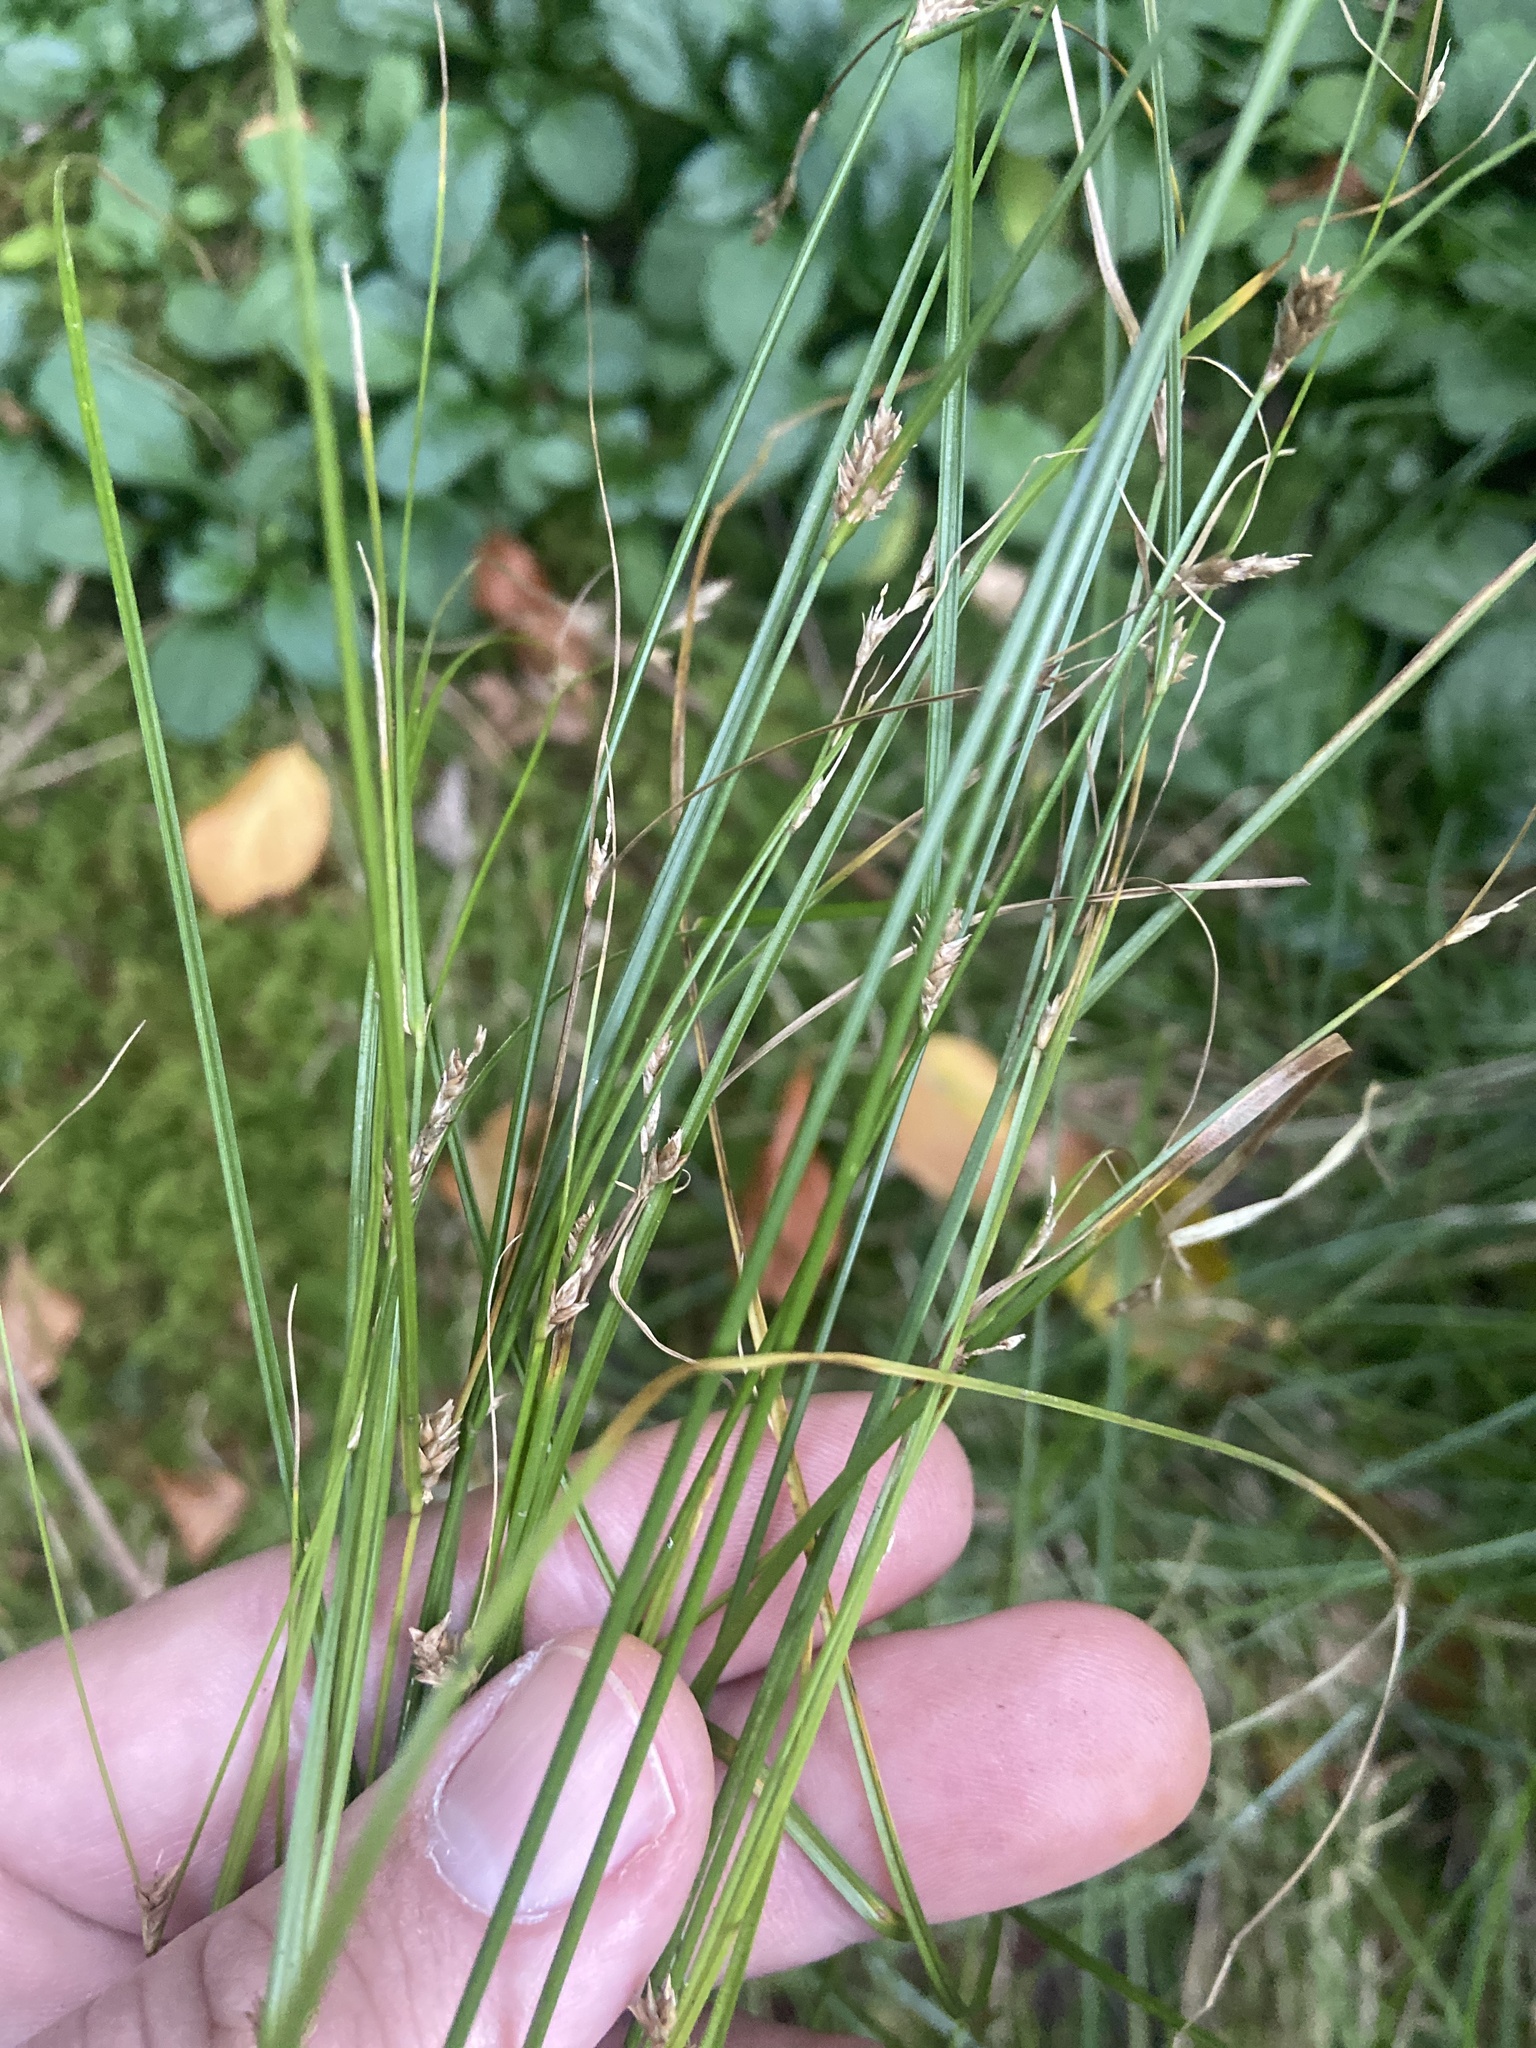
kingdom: Plantae
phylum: Tracheophyta
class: Liliopsida
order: Poales
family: Cyperaceae
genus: Carex
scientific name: Carex remota
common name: Remote sedge
